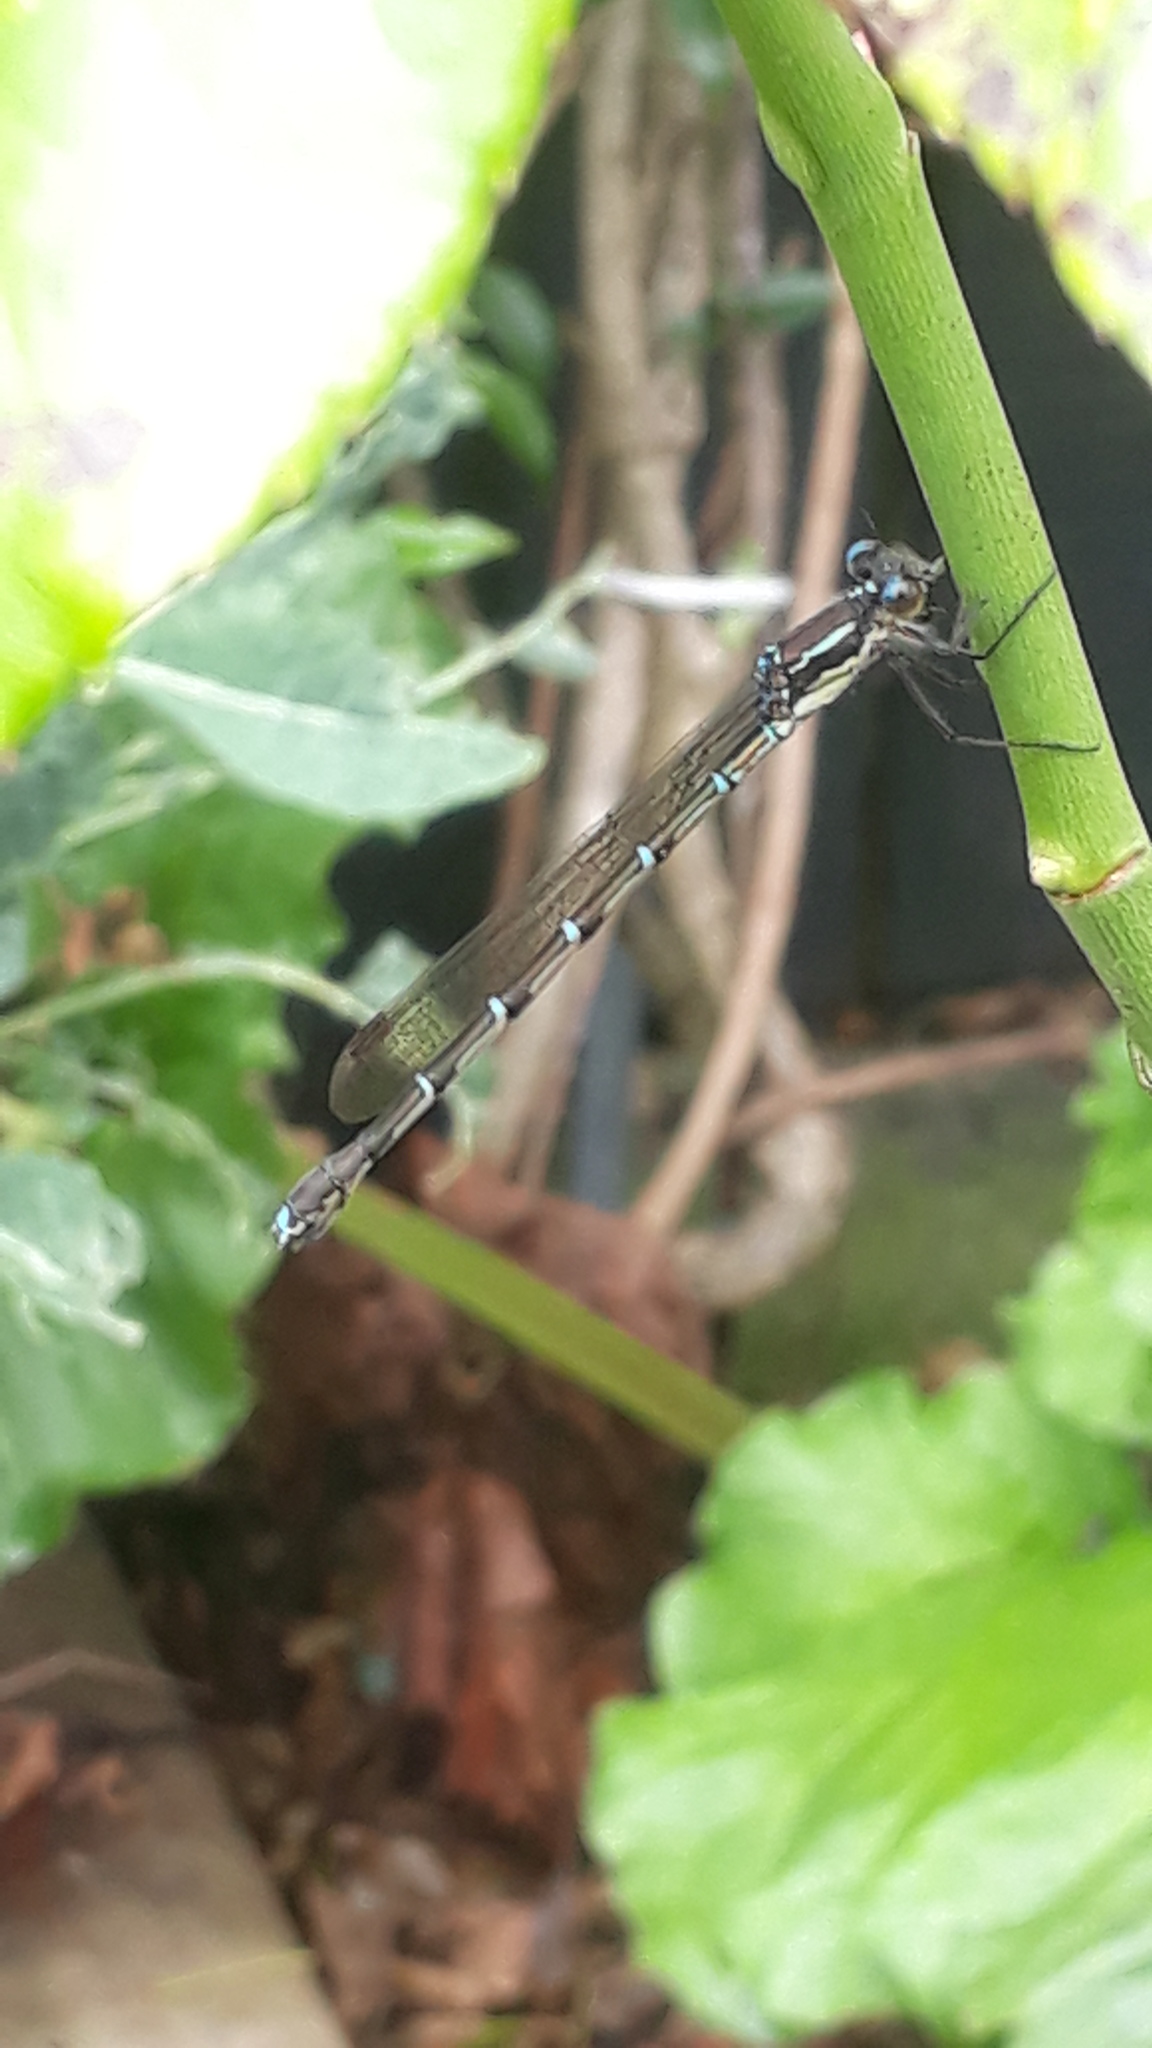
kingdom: Animalia
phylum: Arthropoda
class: Insecta
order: Odonata
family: Lestidae
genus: Austrolestes
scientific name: Austrolestes colensonis
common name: Blue damselfly
